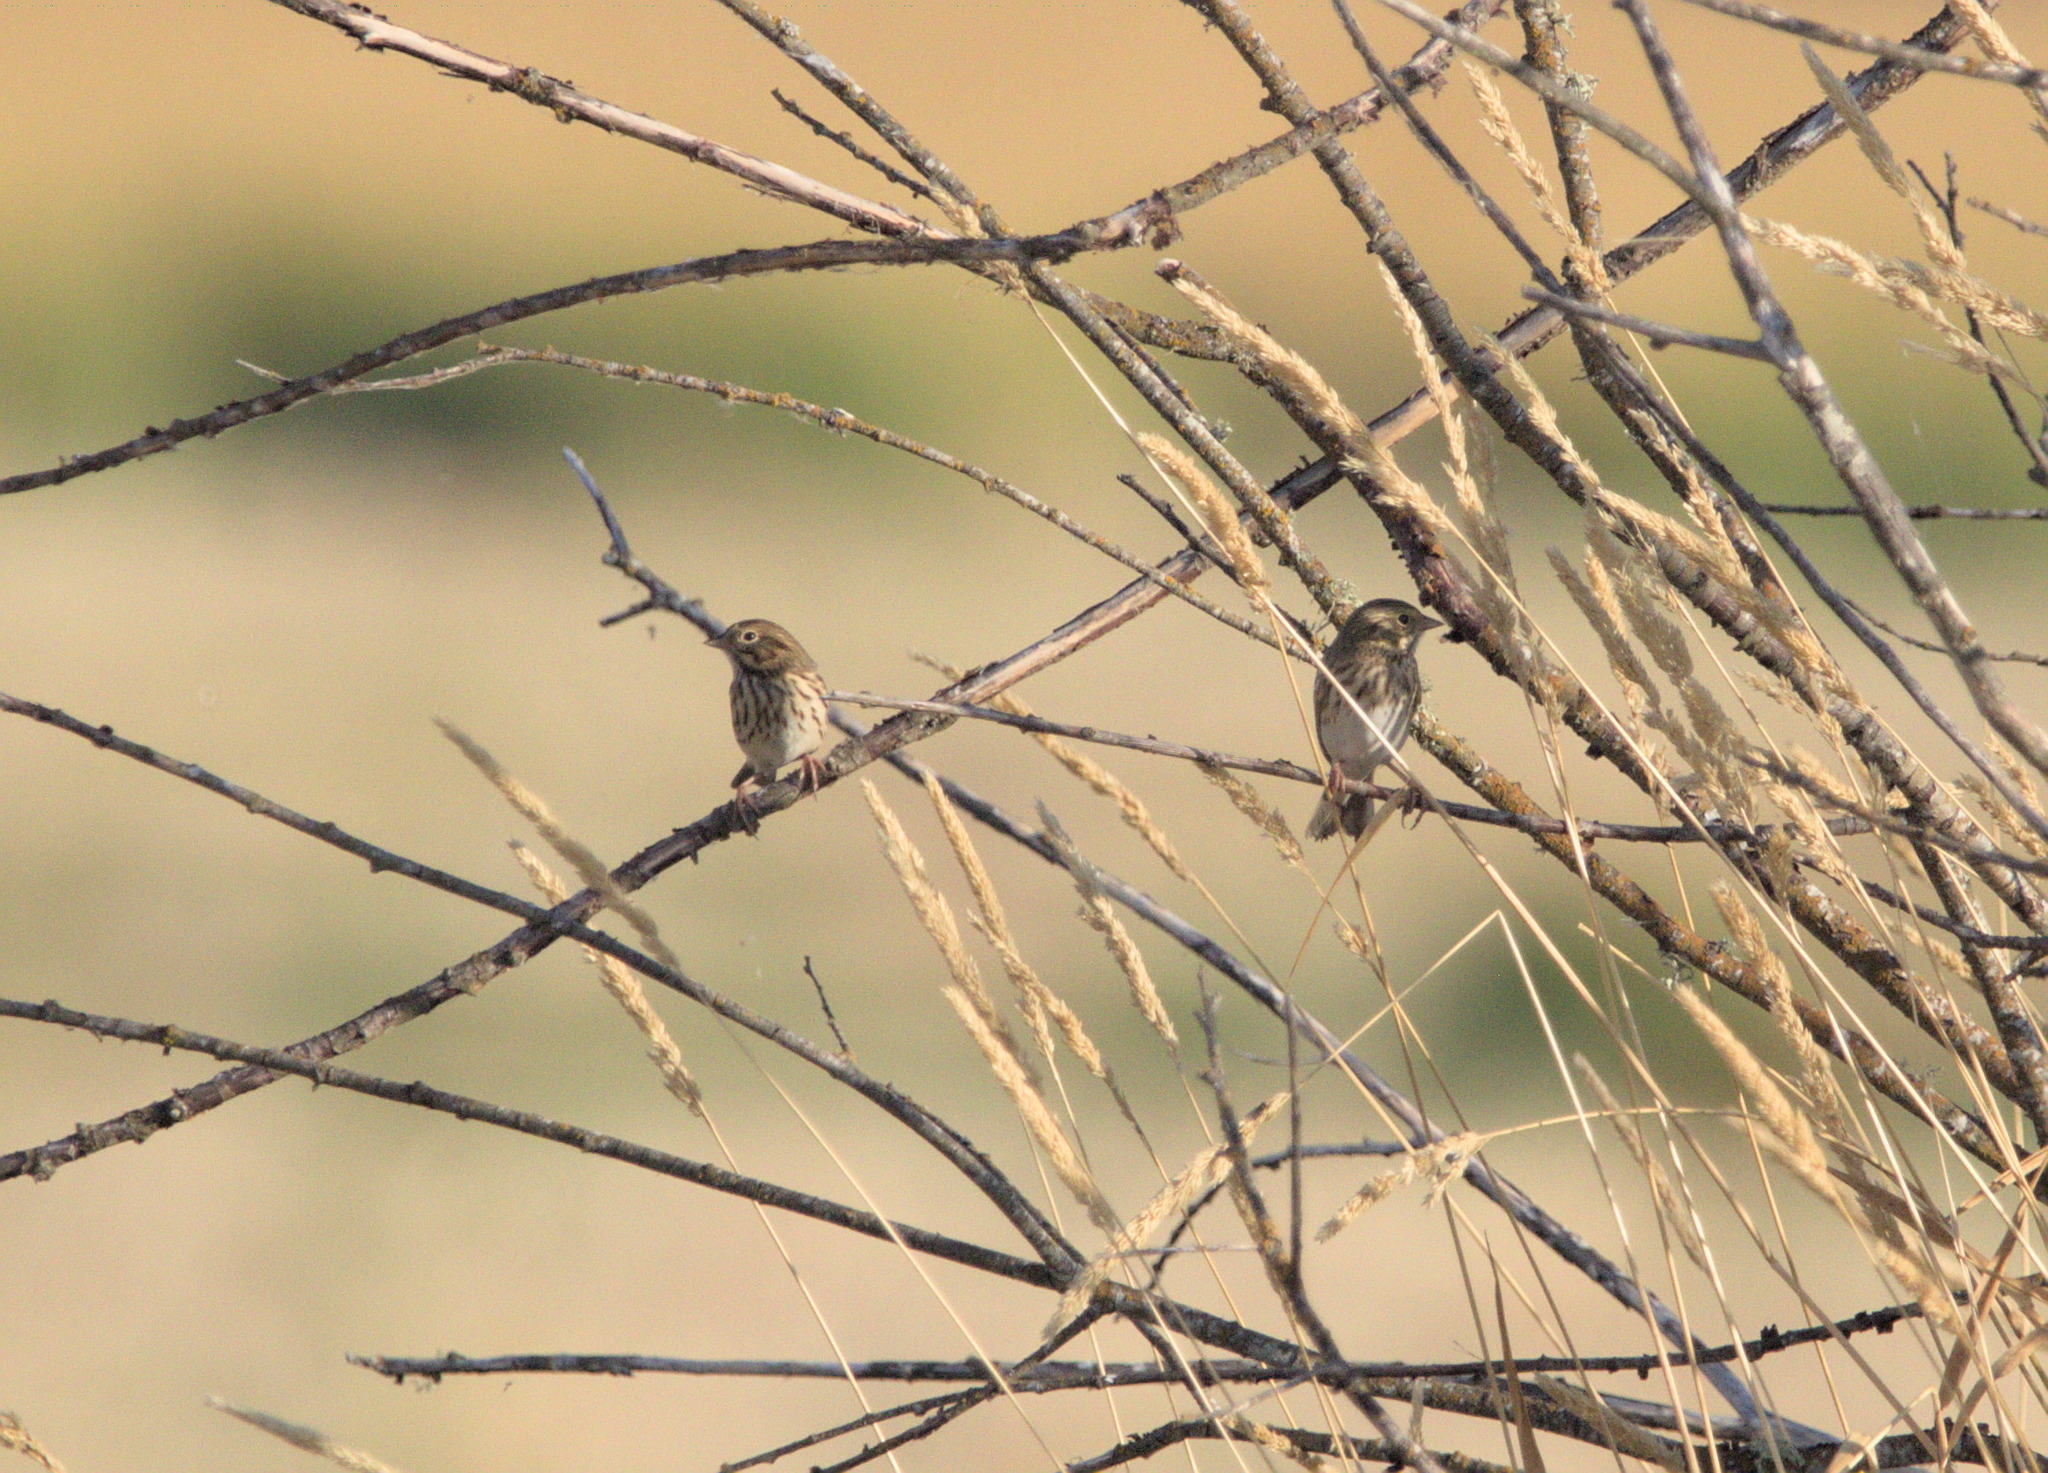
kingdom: Animalia
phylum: Chordata
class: Aves
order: Passeriformes
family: Passerellidae
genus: Passerculus
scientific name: Passerculus sandwichensis
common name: Savannah sparrow
